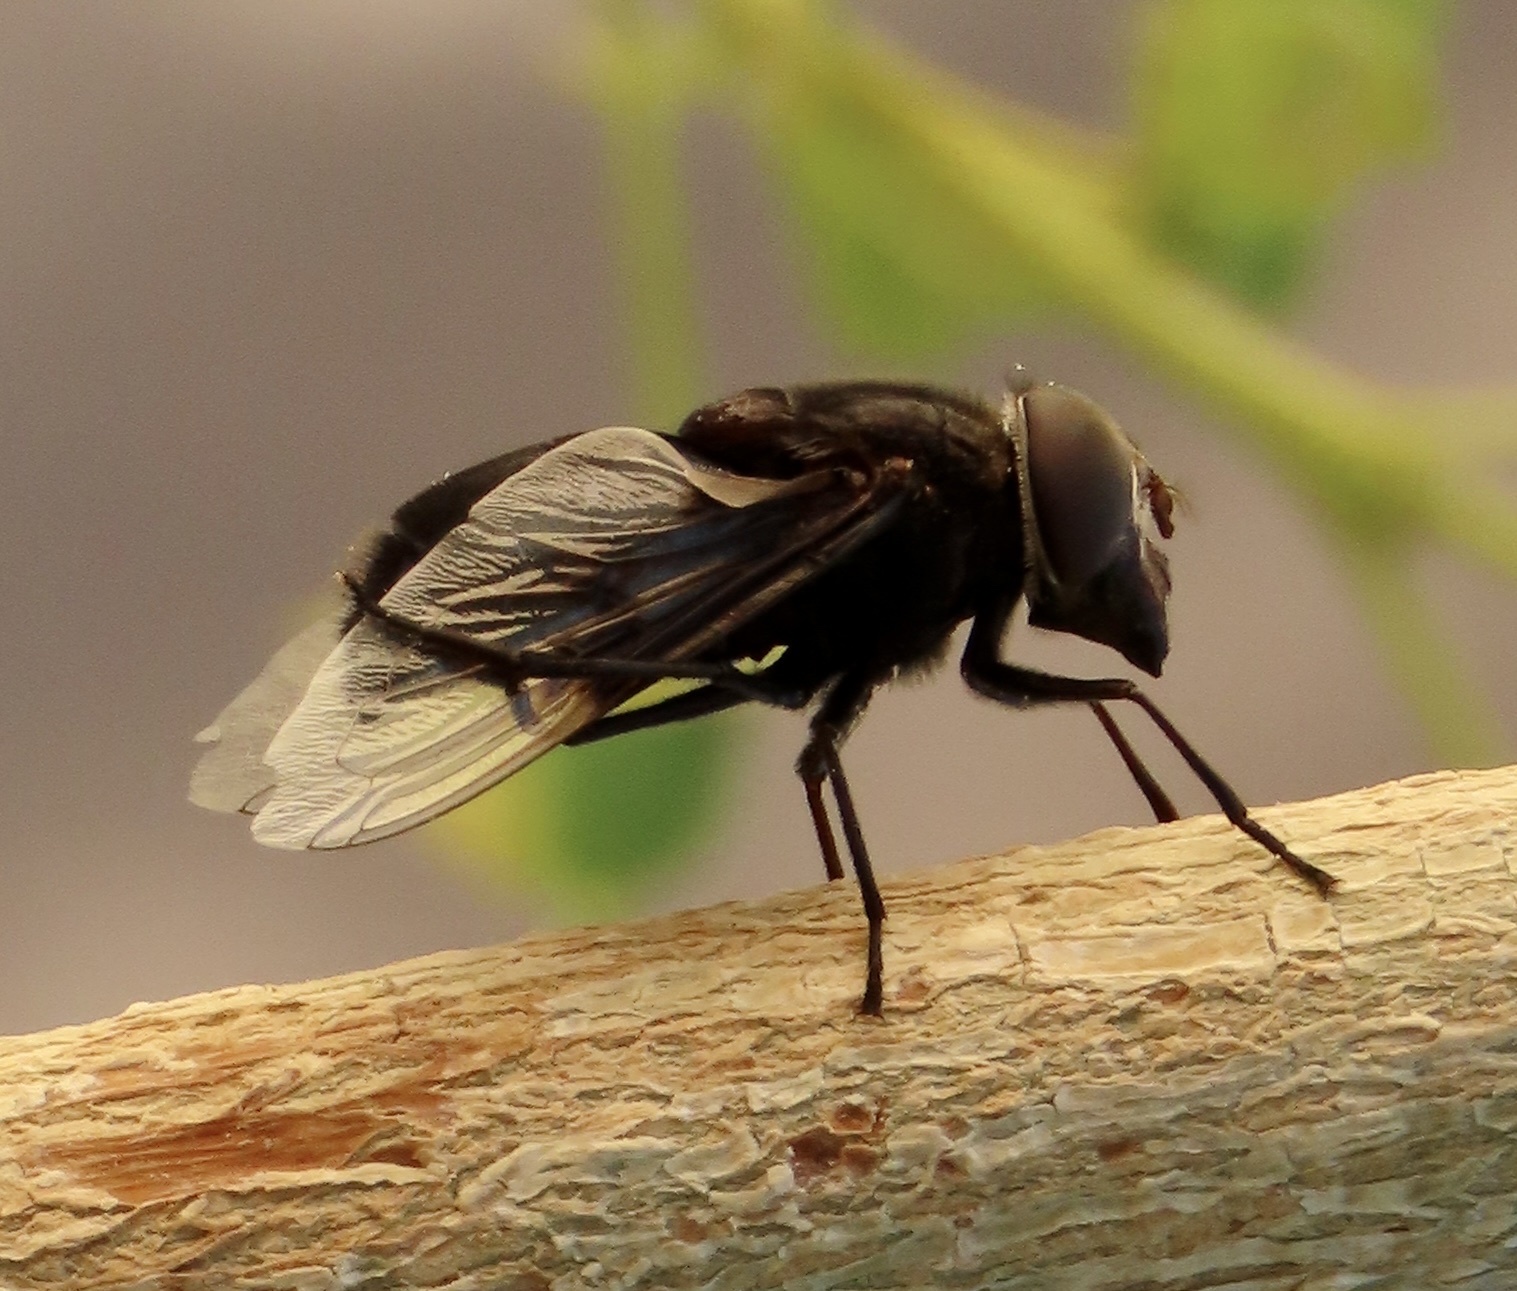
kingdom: Animalia
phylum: Arthropoda
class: Insecta
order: Diptera
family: Syrphidae
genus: Copestylum
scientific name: Copestylum
